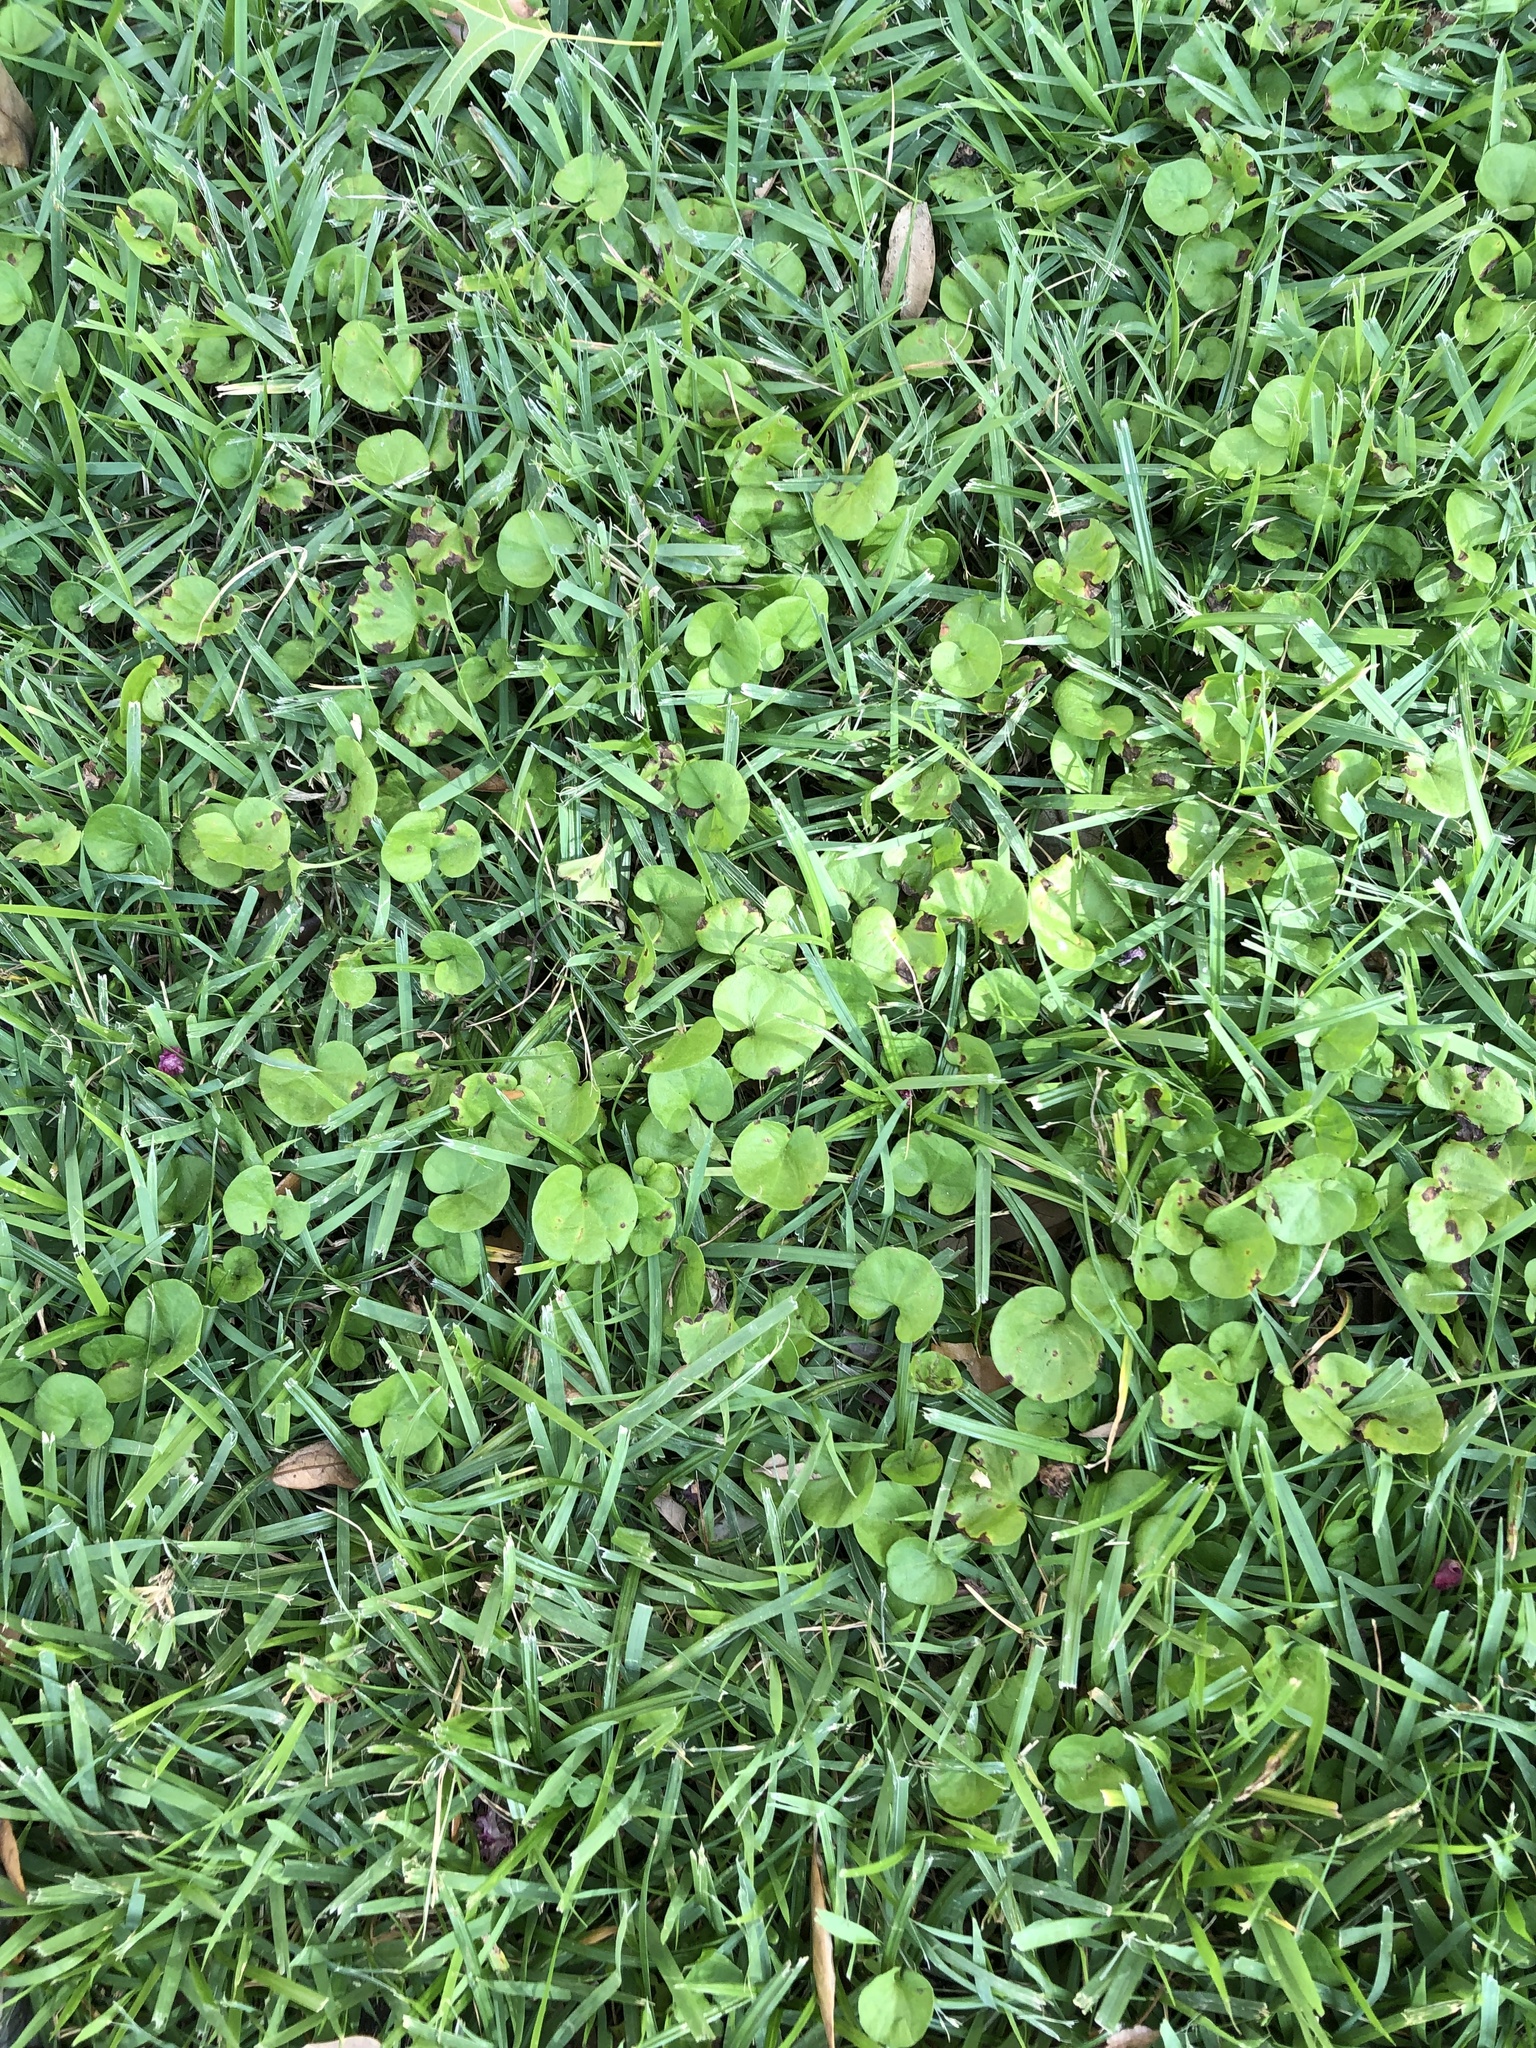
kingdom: Plantae
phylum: Tracheophyta
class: Magnoliopsida
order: Solanales
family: Convolvulaceae
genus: Dichondra
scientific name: Dichondra carolinensis
